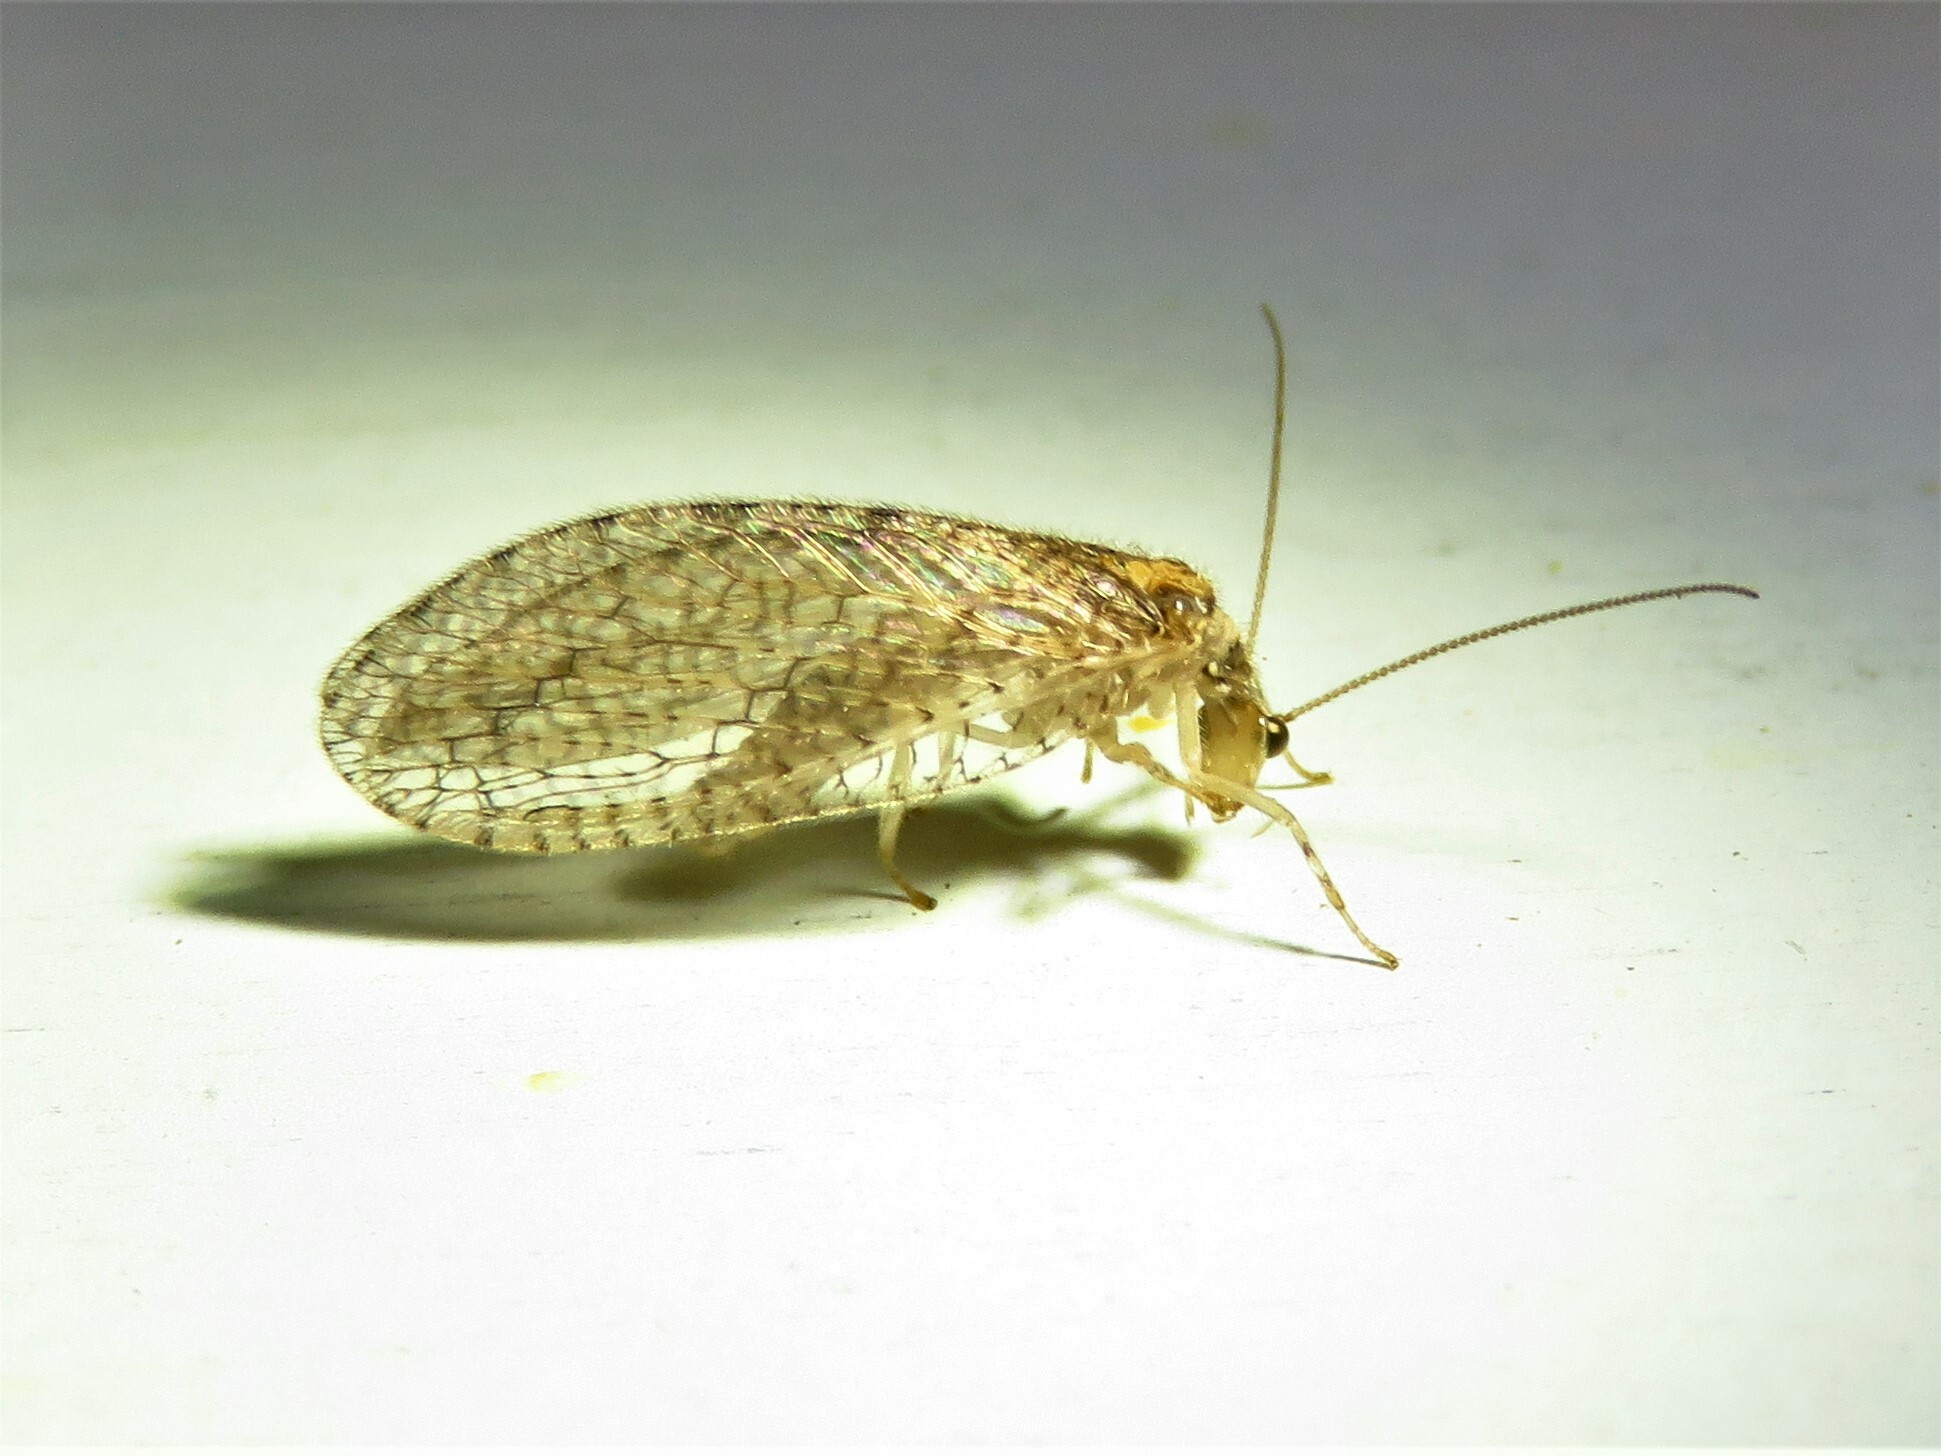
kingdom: Animalia
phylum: Arthropoda
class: Insecta
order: Neuroptera
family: Hemerobiidae
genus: Micromus
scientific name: Micromus posticus
